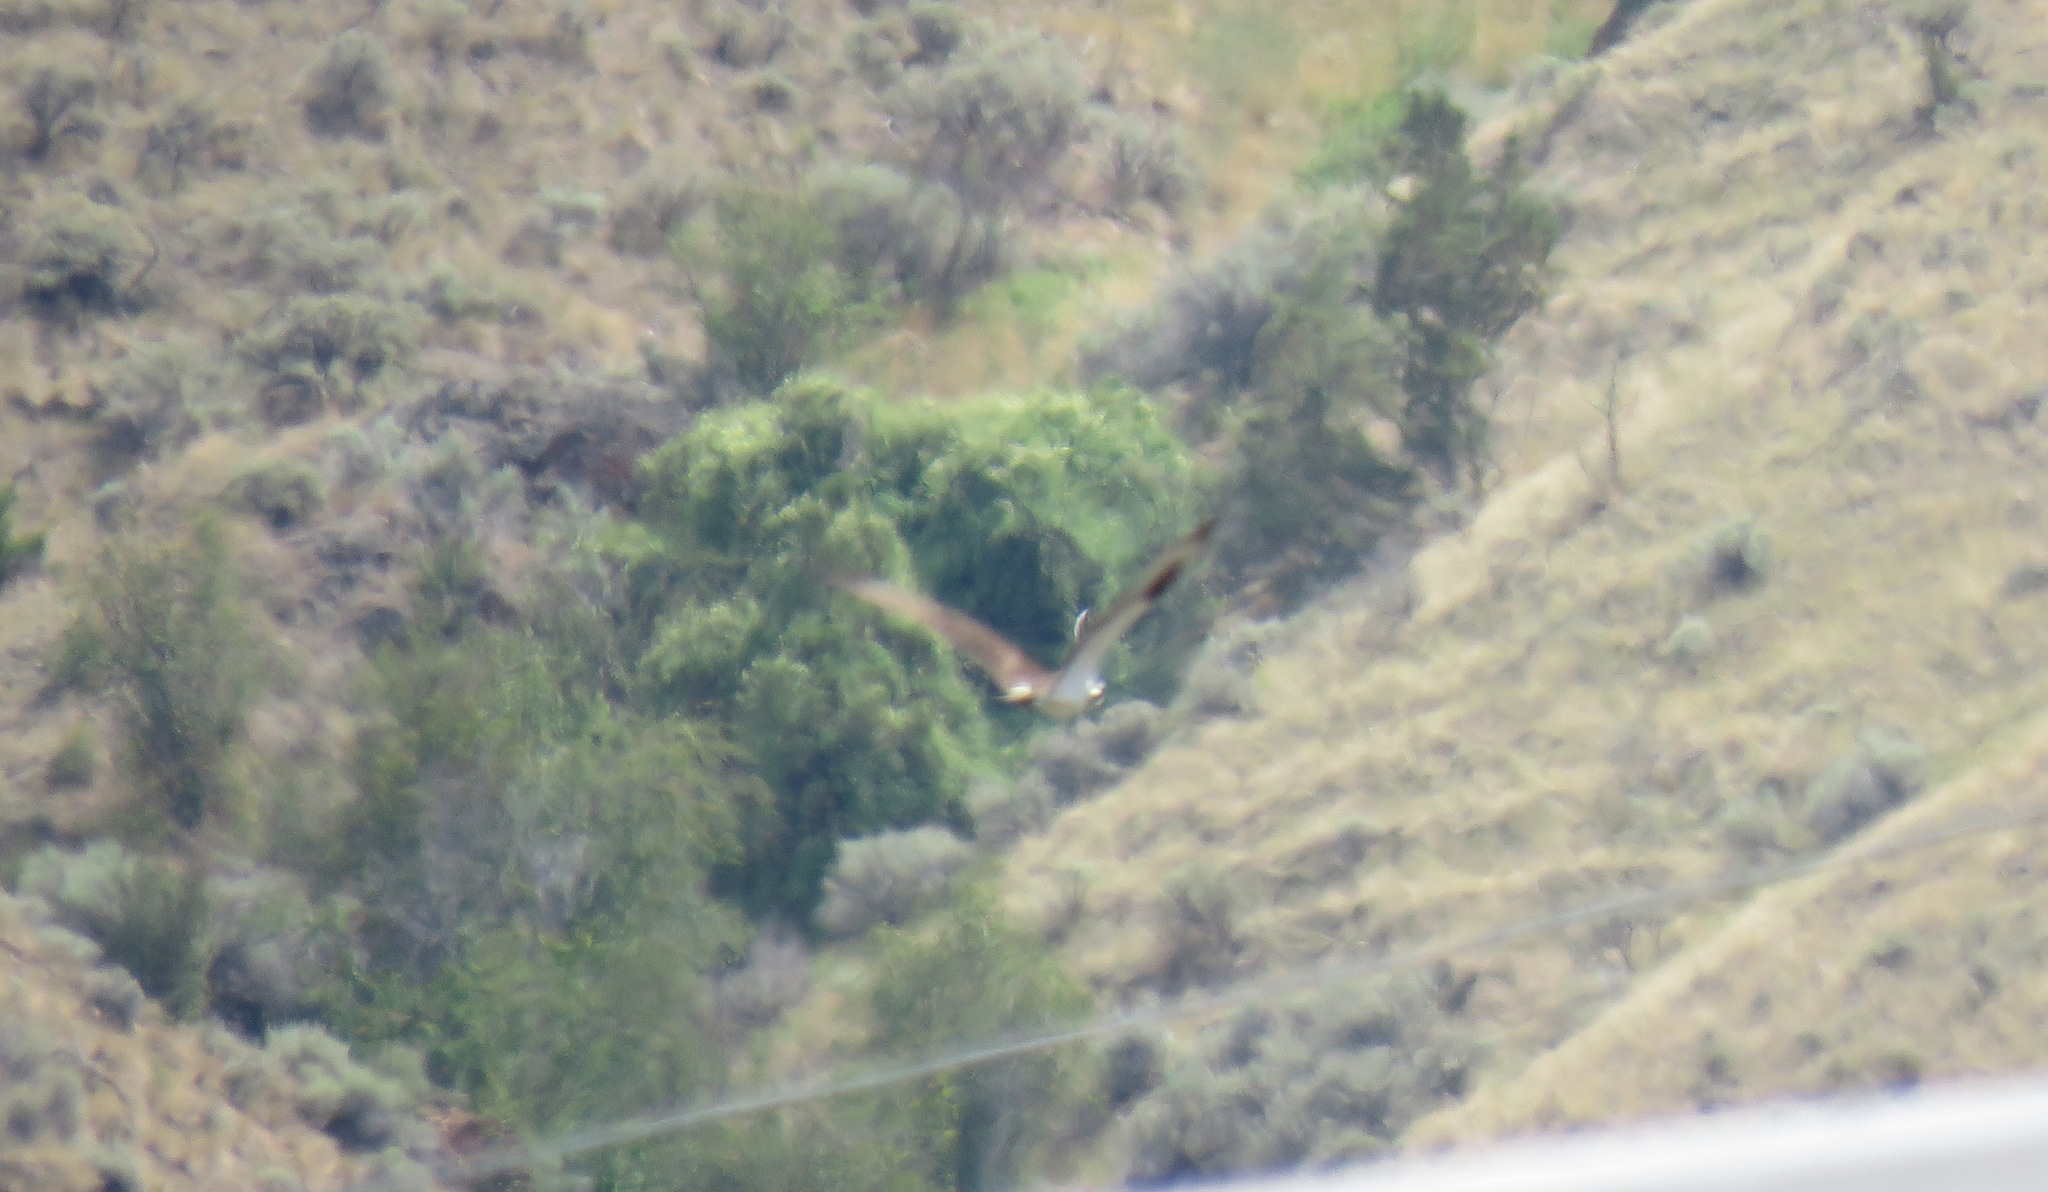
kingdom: Animalia
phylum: Chordata
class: Aves
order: Accipitriformes
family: Pandionidae
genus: Pandion
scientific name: Pandion haliaetus
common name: Osprey
